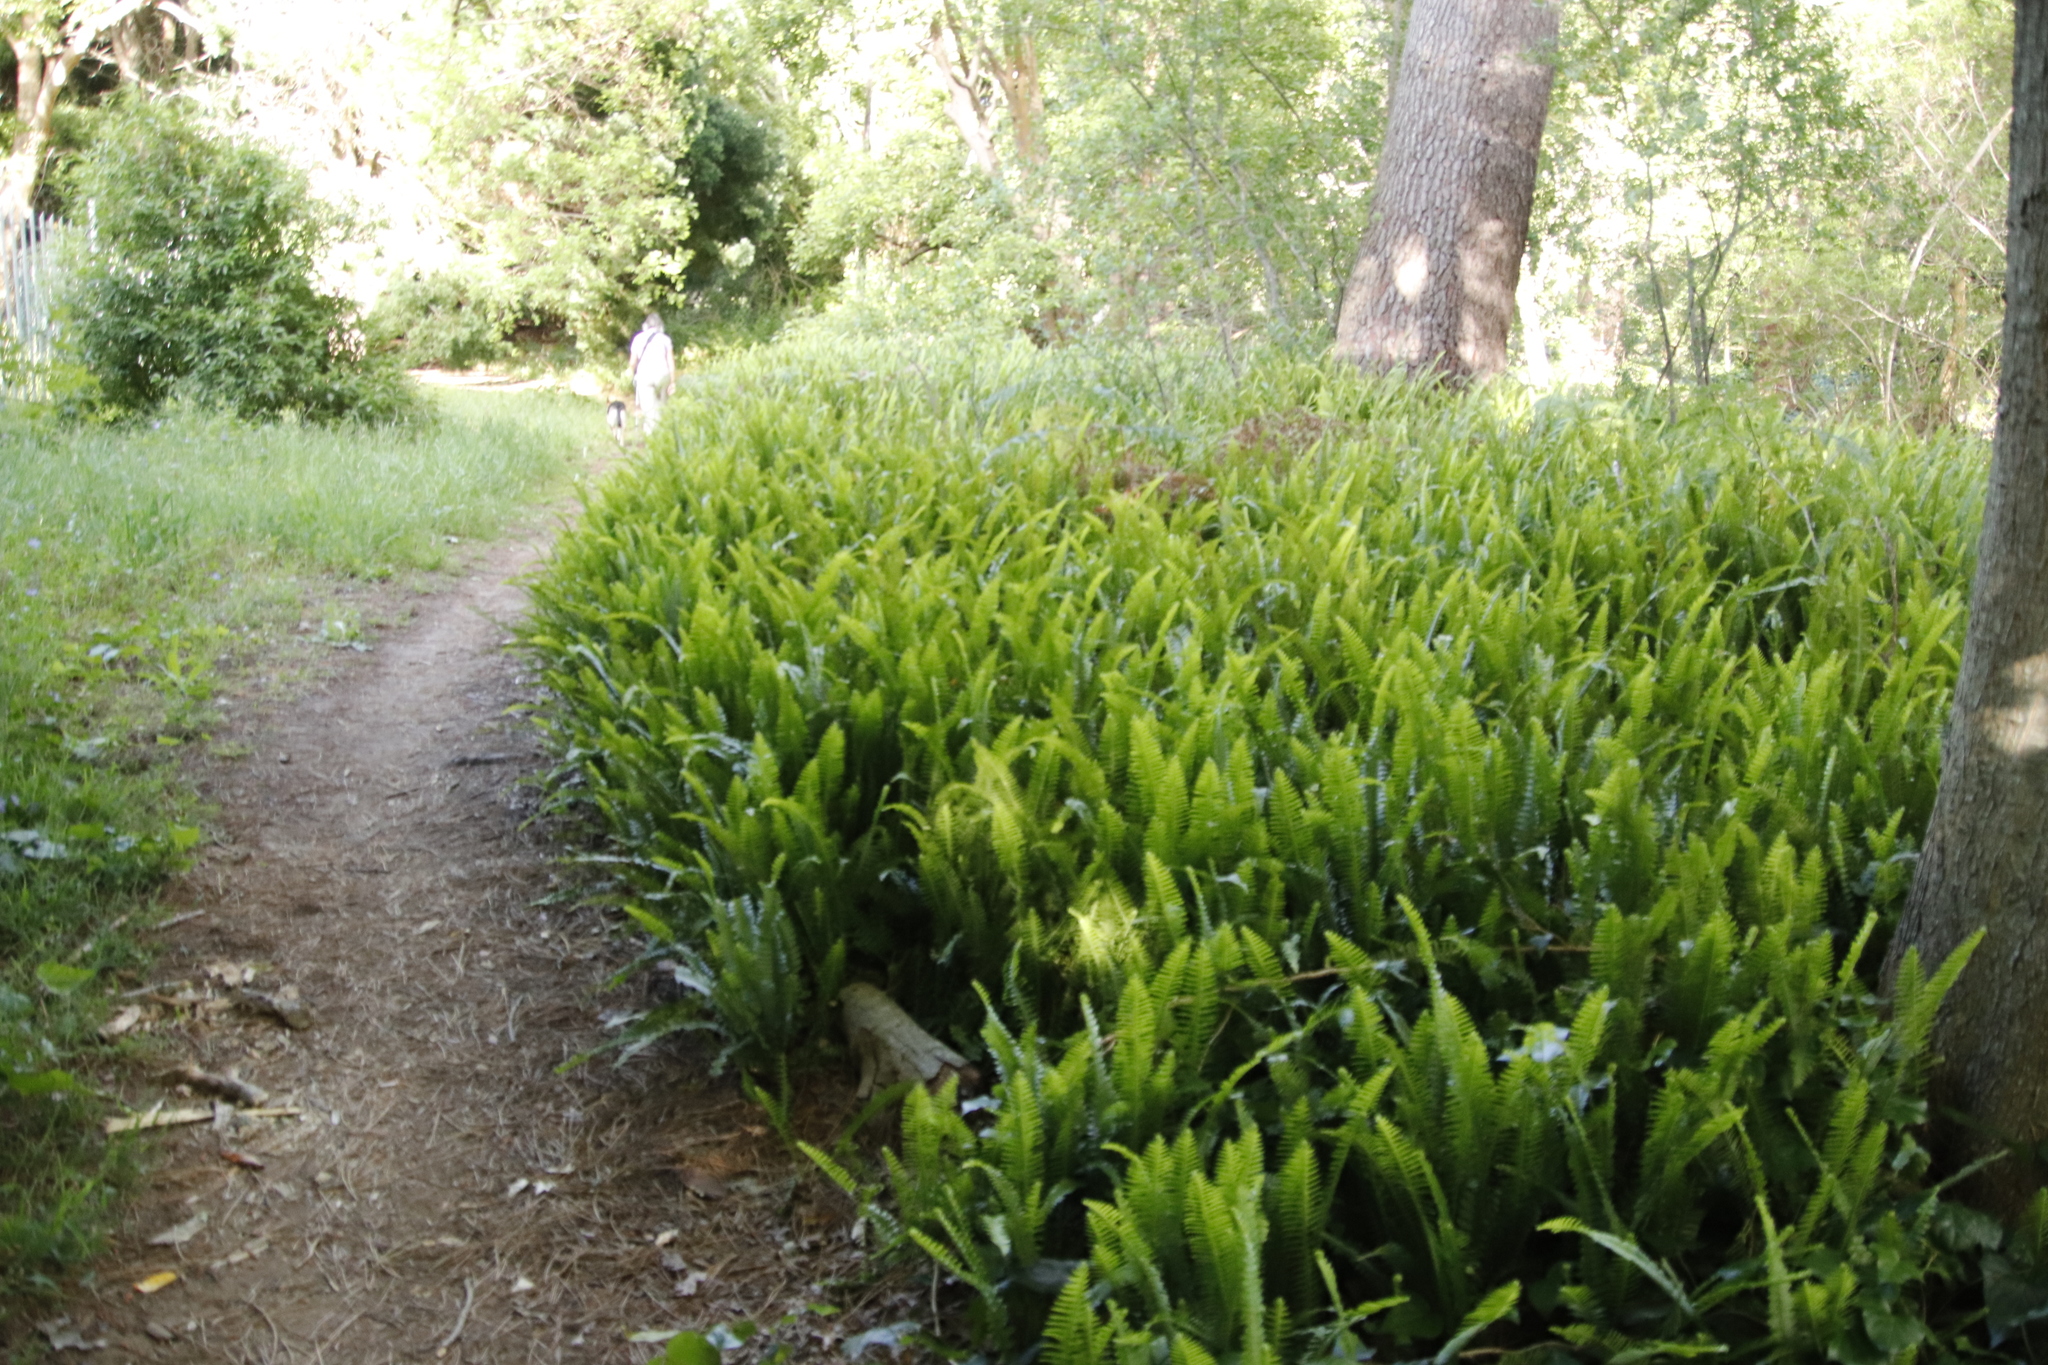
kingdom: Plantae
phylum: Tracheophyta
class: Polypodiopsida
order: Polypodiales
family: Nephrolepidaceae
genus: Nephrolepis
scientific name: Nephrolepis cordifolia
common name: Narrow swordfern
